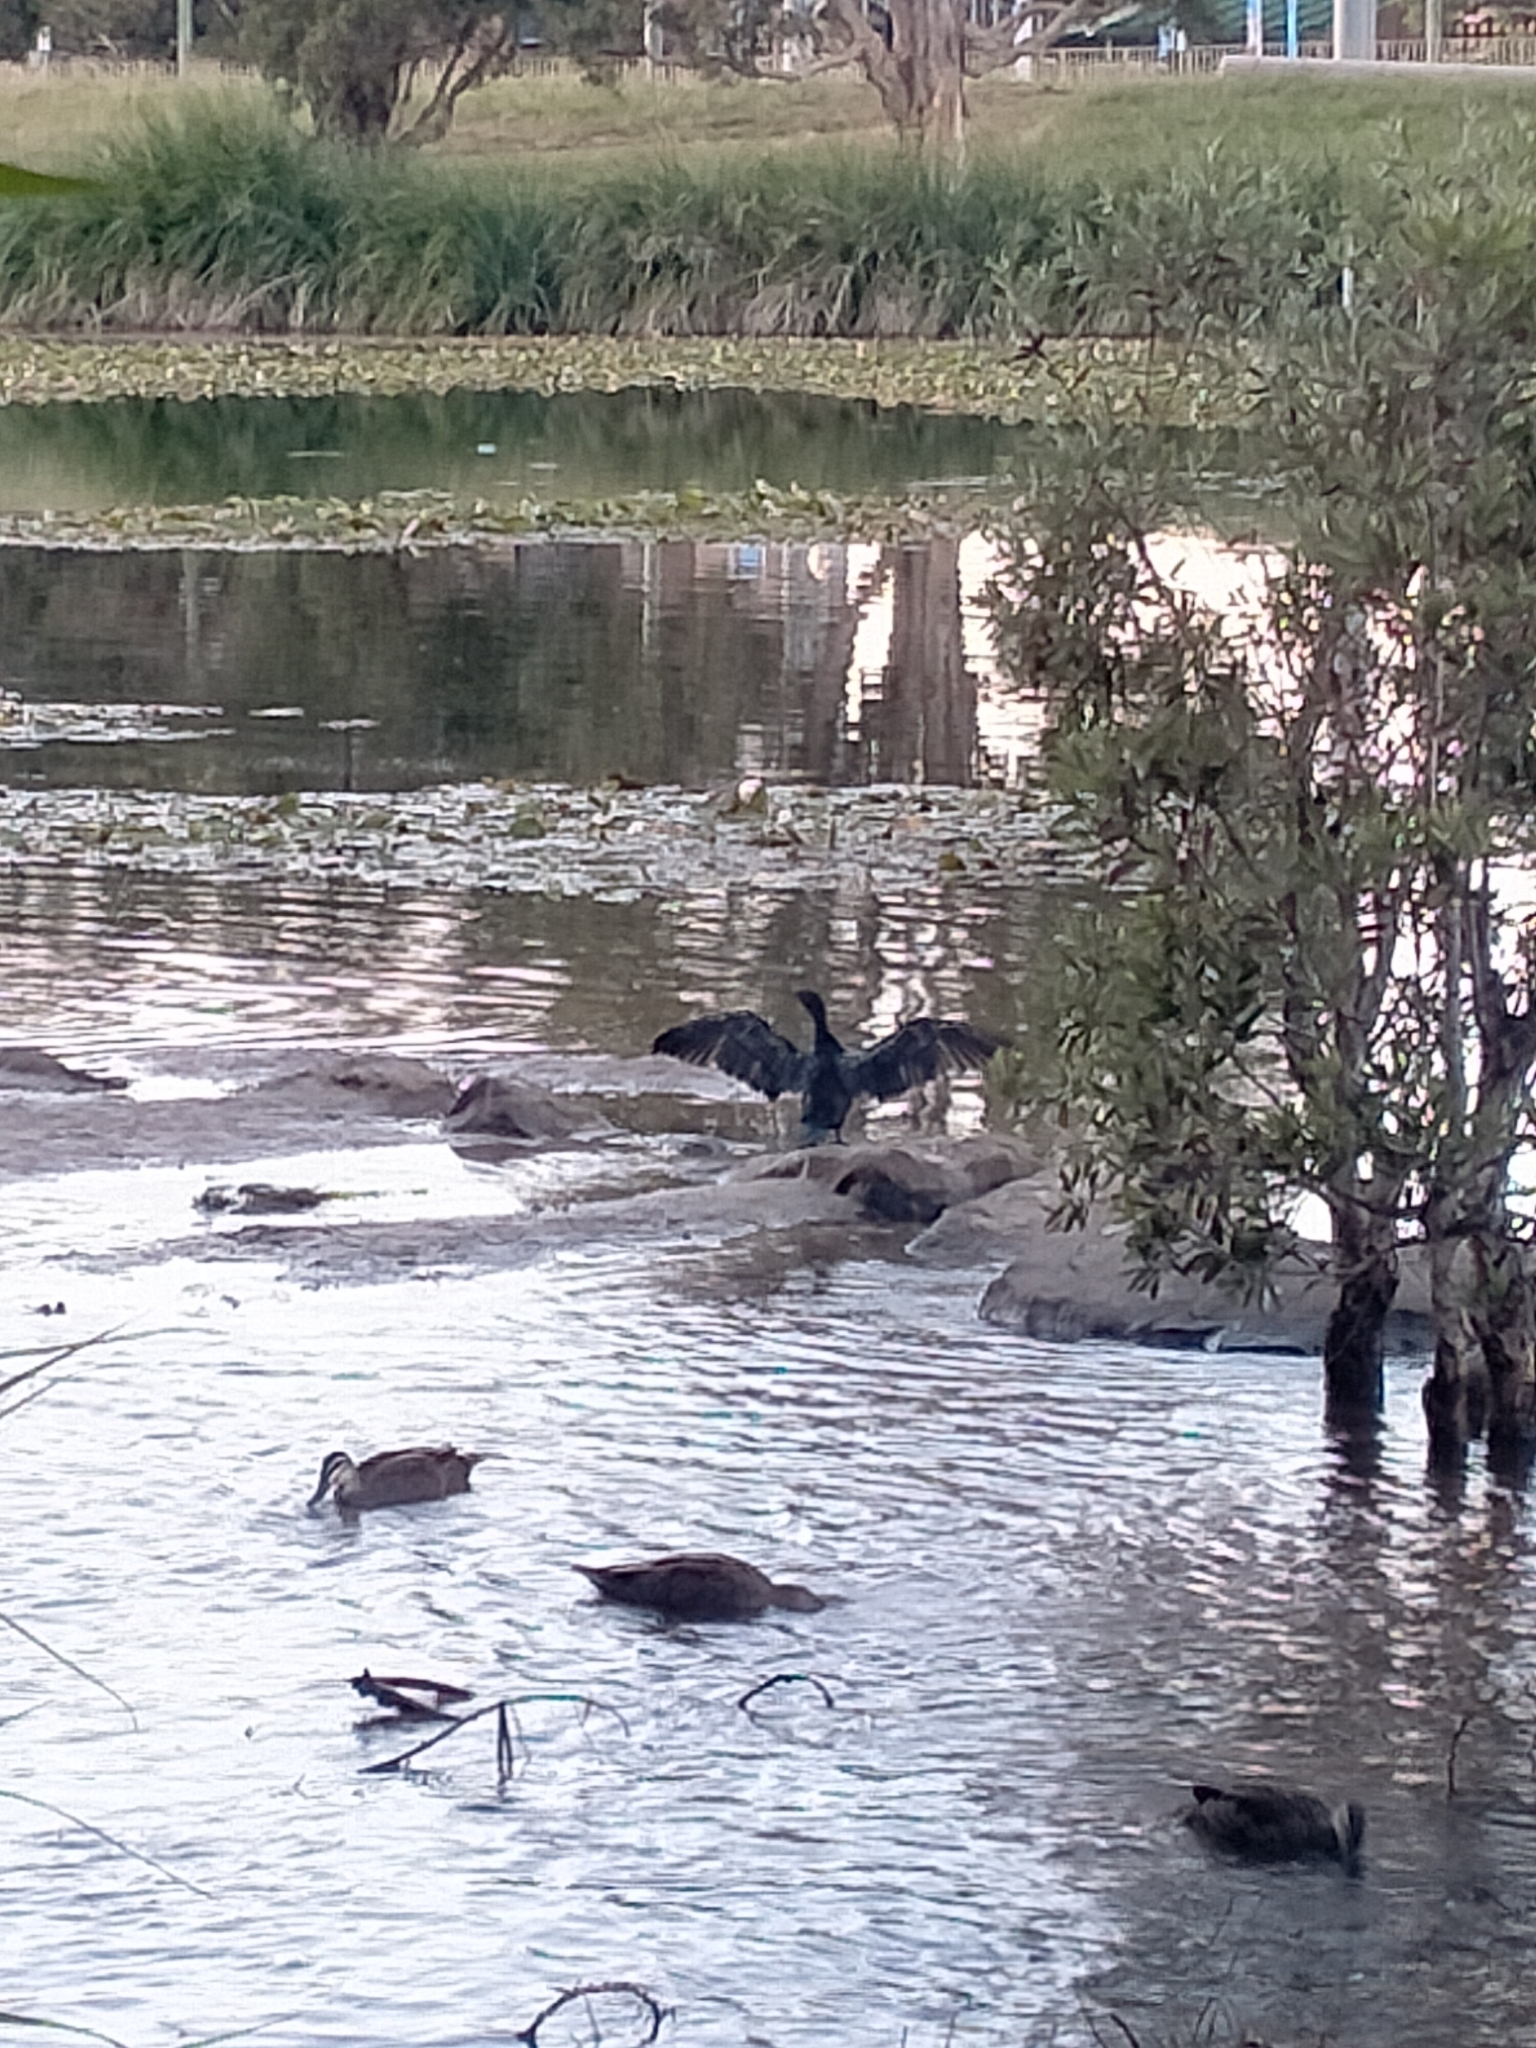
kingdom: Animalia
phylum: Chordata
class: Aves
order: Suliformes
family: Phalacrocoracidae
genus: Phalacrocorax
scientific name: Phalacrocorax sulcirostris
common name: Little black cormorant
